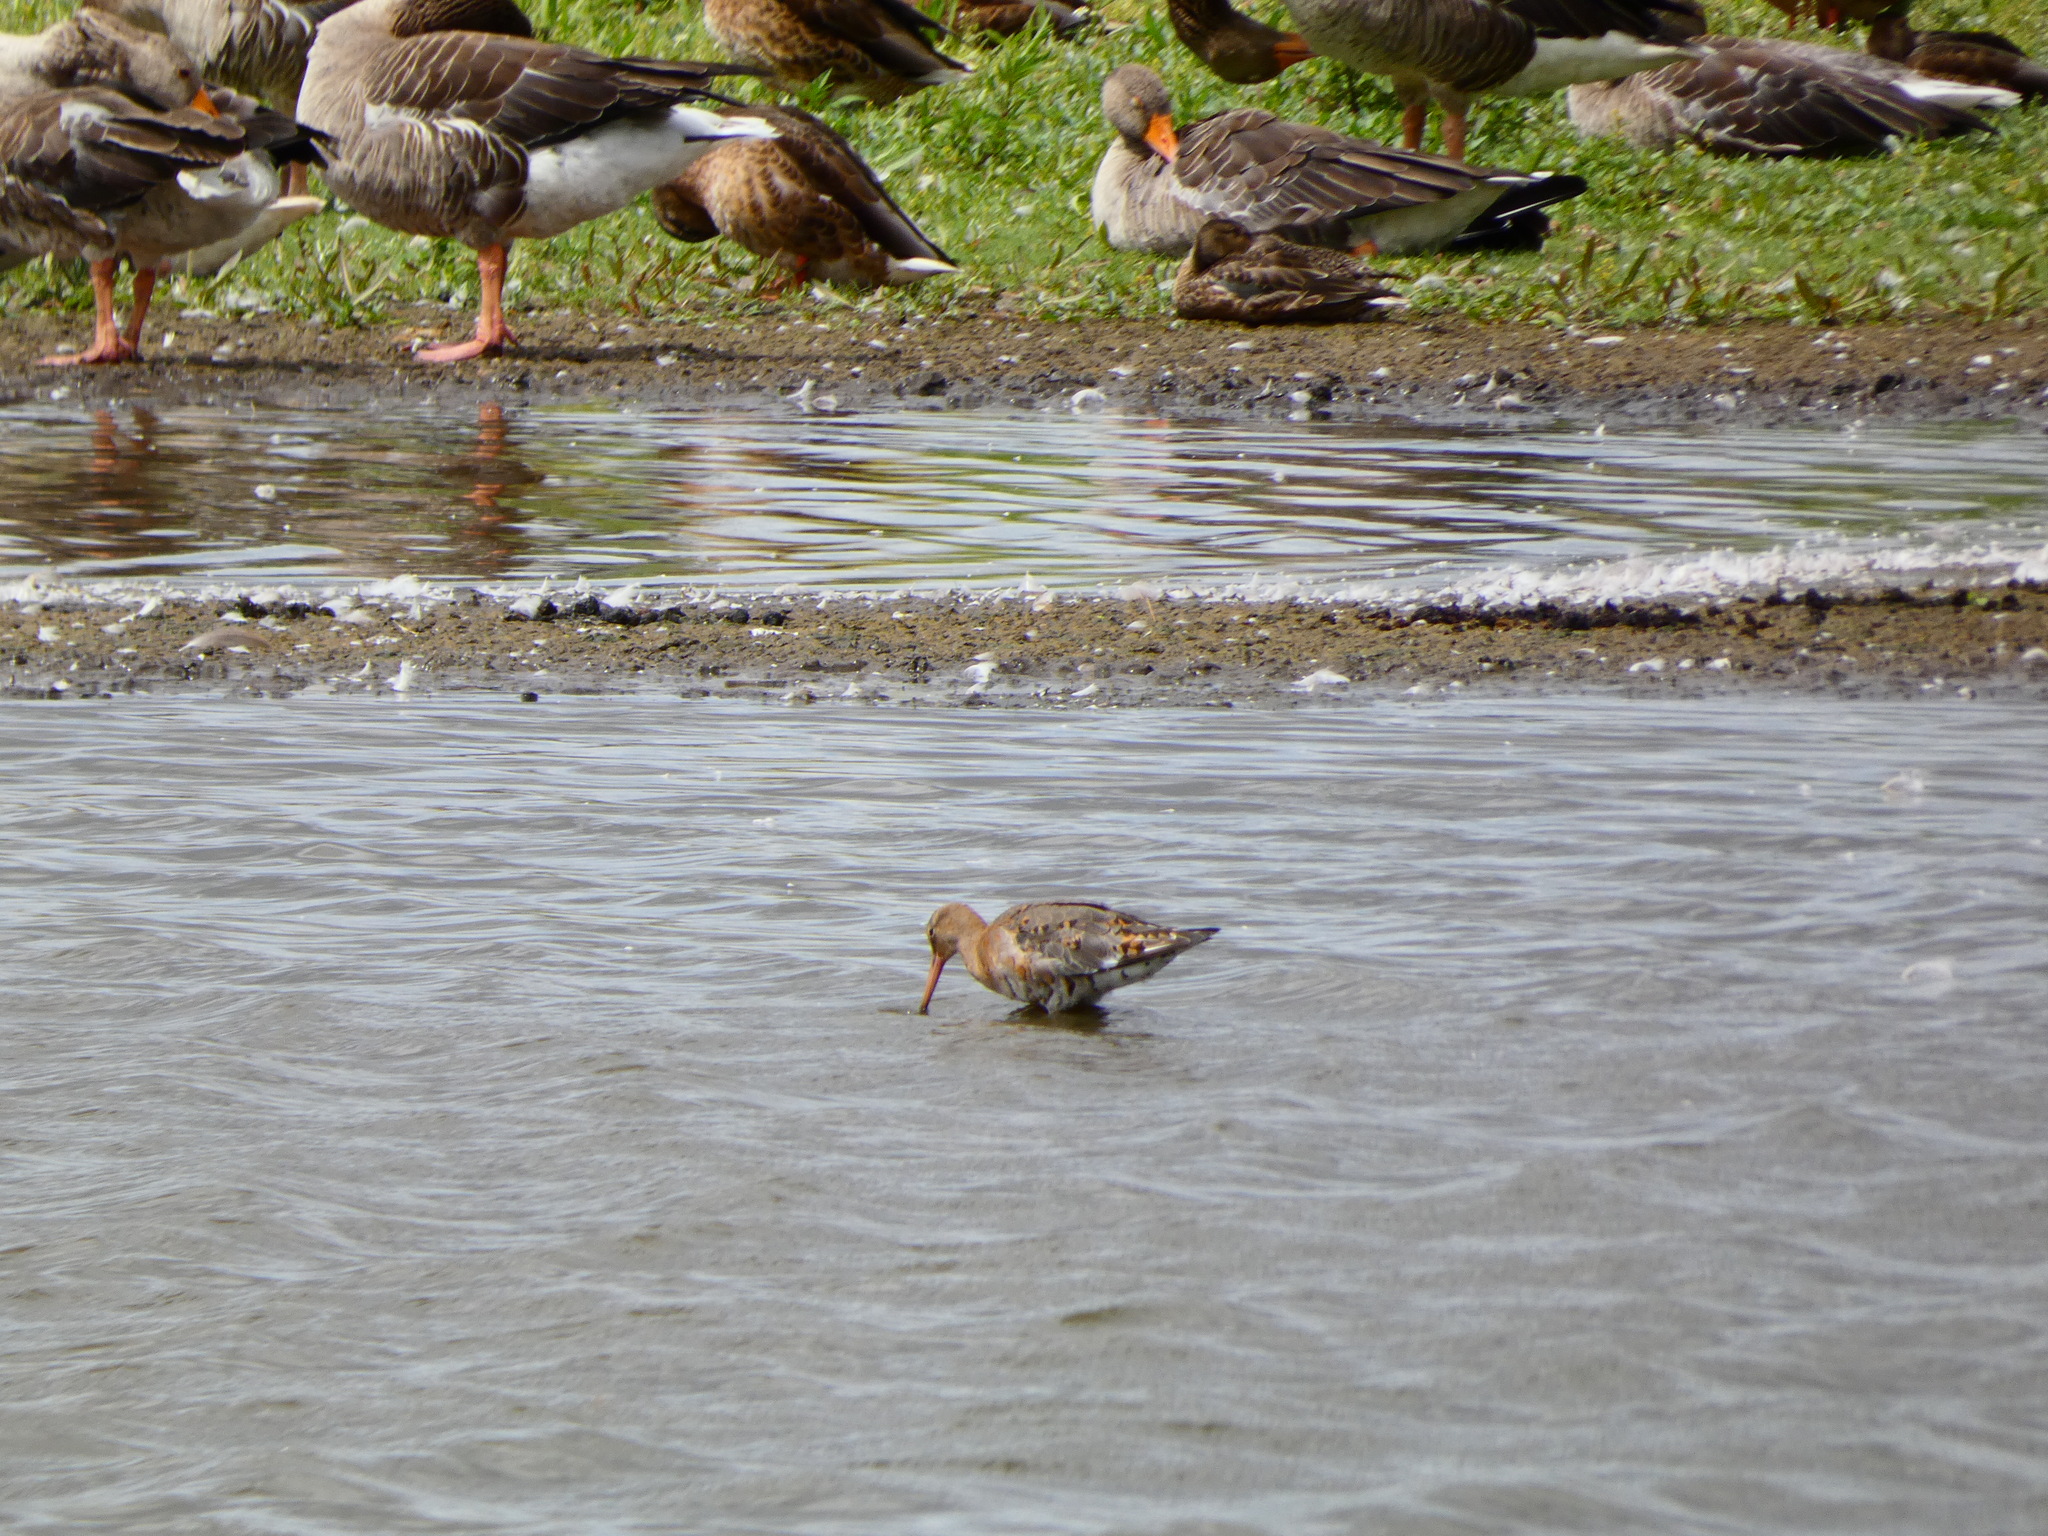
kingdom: Animalia
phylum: Chordata
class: Aves
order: Charadriiformes
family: Scolopacidae
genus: Limosa
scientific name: Limosa limosa
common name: Black-tailed godwit
